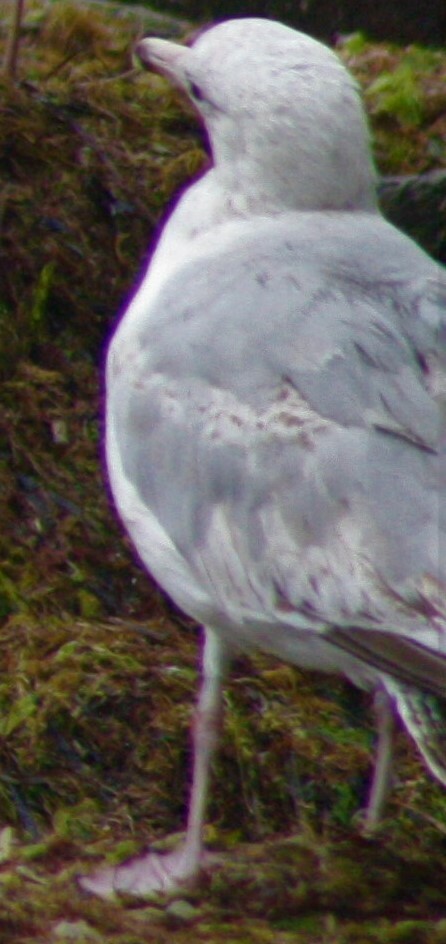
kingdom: Animalia
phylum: Chordata
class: Aves
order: Charadriiformes
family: Laridae
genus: Larus
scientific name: Larus argentatus
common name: Herring gull
